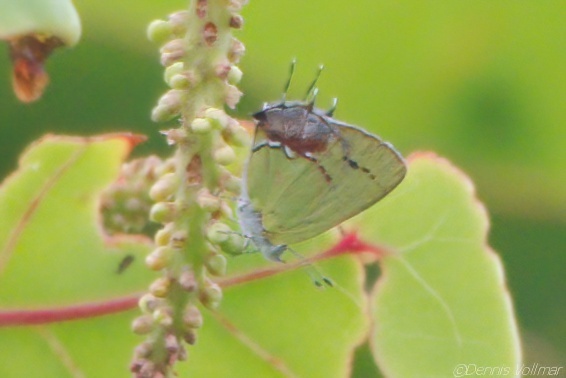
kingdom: Animalia
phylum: Arthropoda
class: Insecta
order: Lepidoptera
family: Lycaenidae
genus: Thecla
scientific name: Thecla maesites
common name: Verde azul hairstreak
